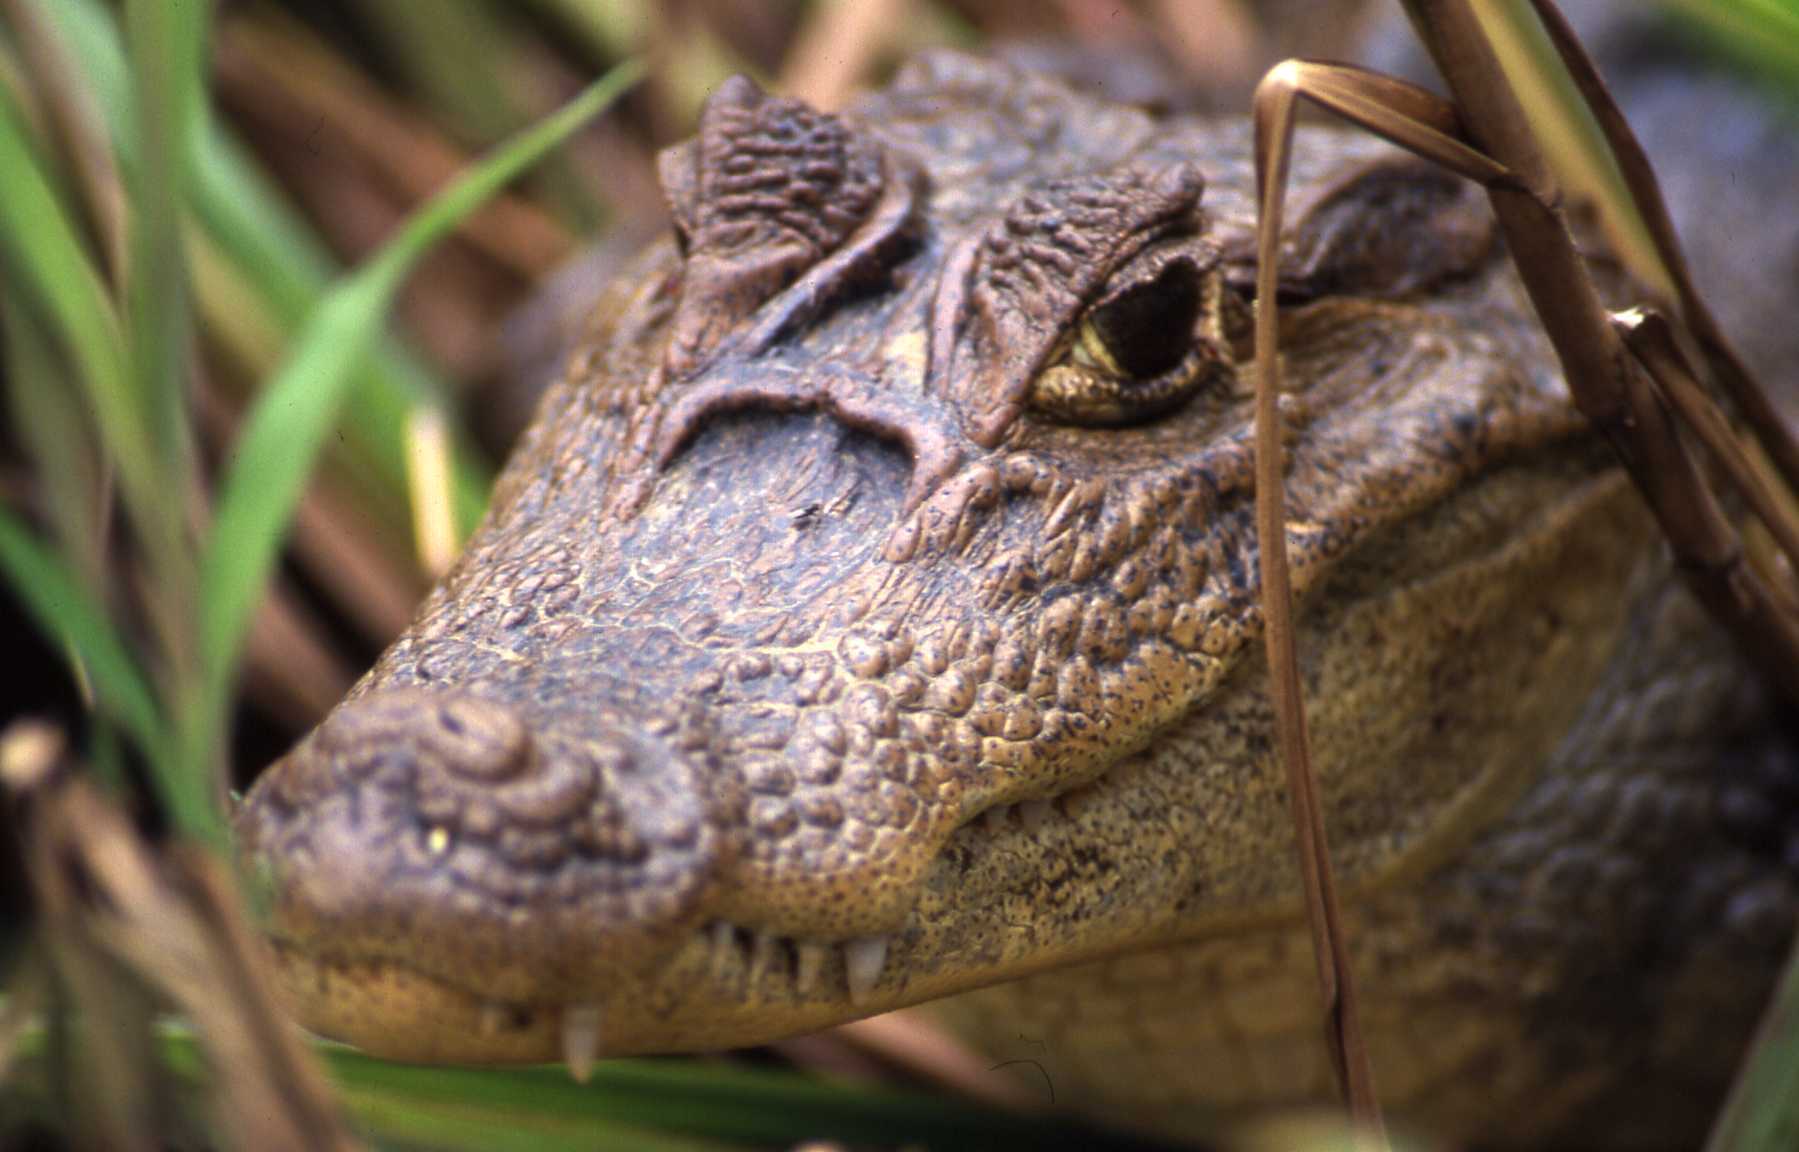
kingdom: Animalia
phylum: Chordata
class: Crocodylia
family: Alligatoridae
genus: Caiman
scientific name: Caiman crocodilus
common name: Common caiman
